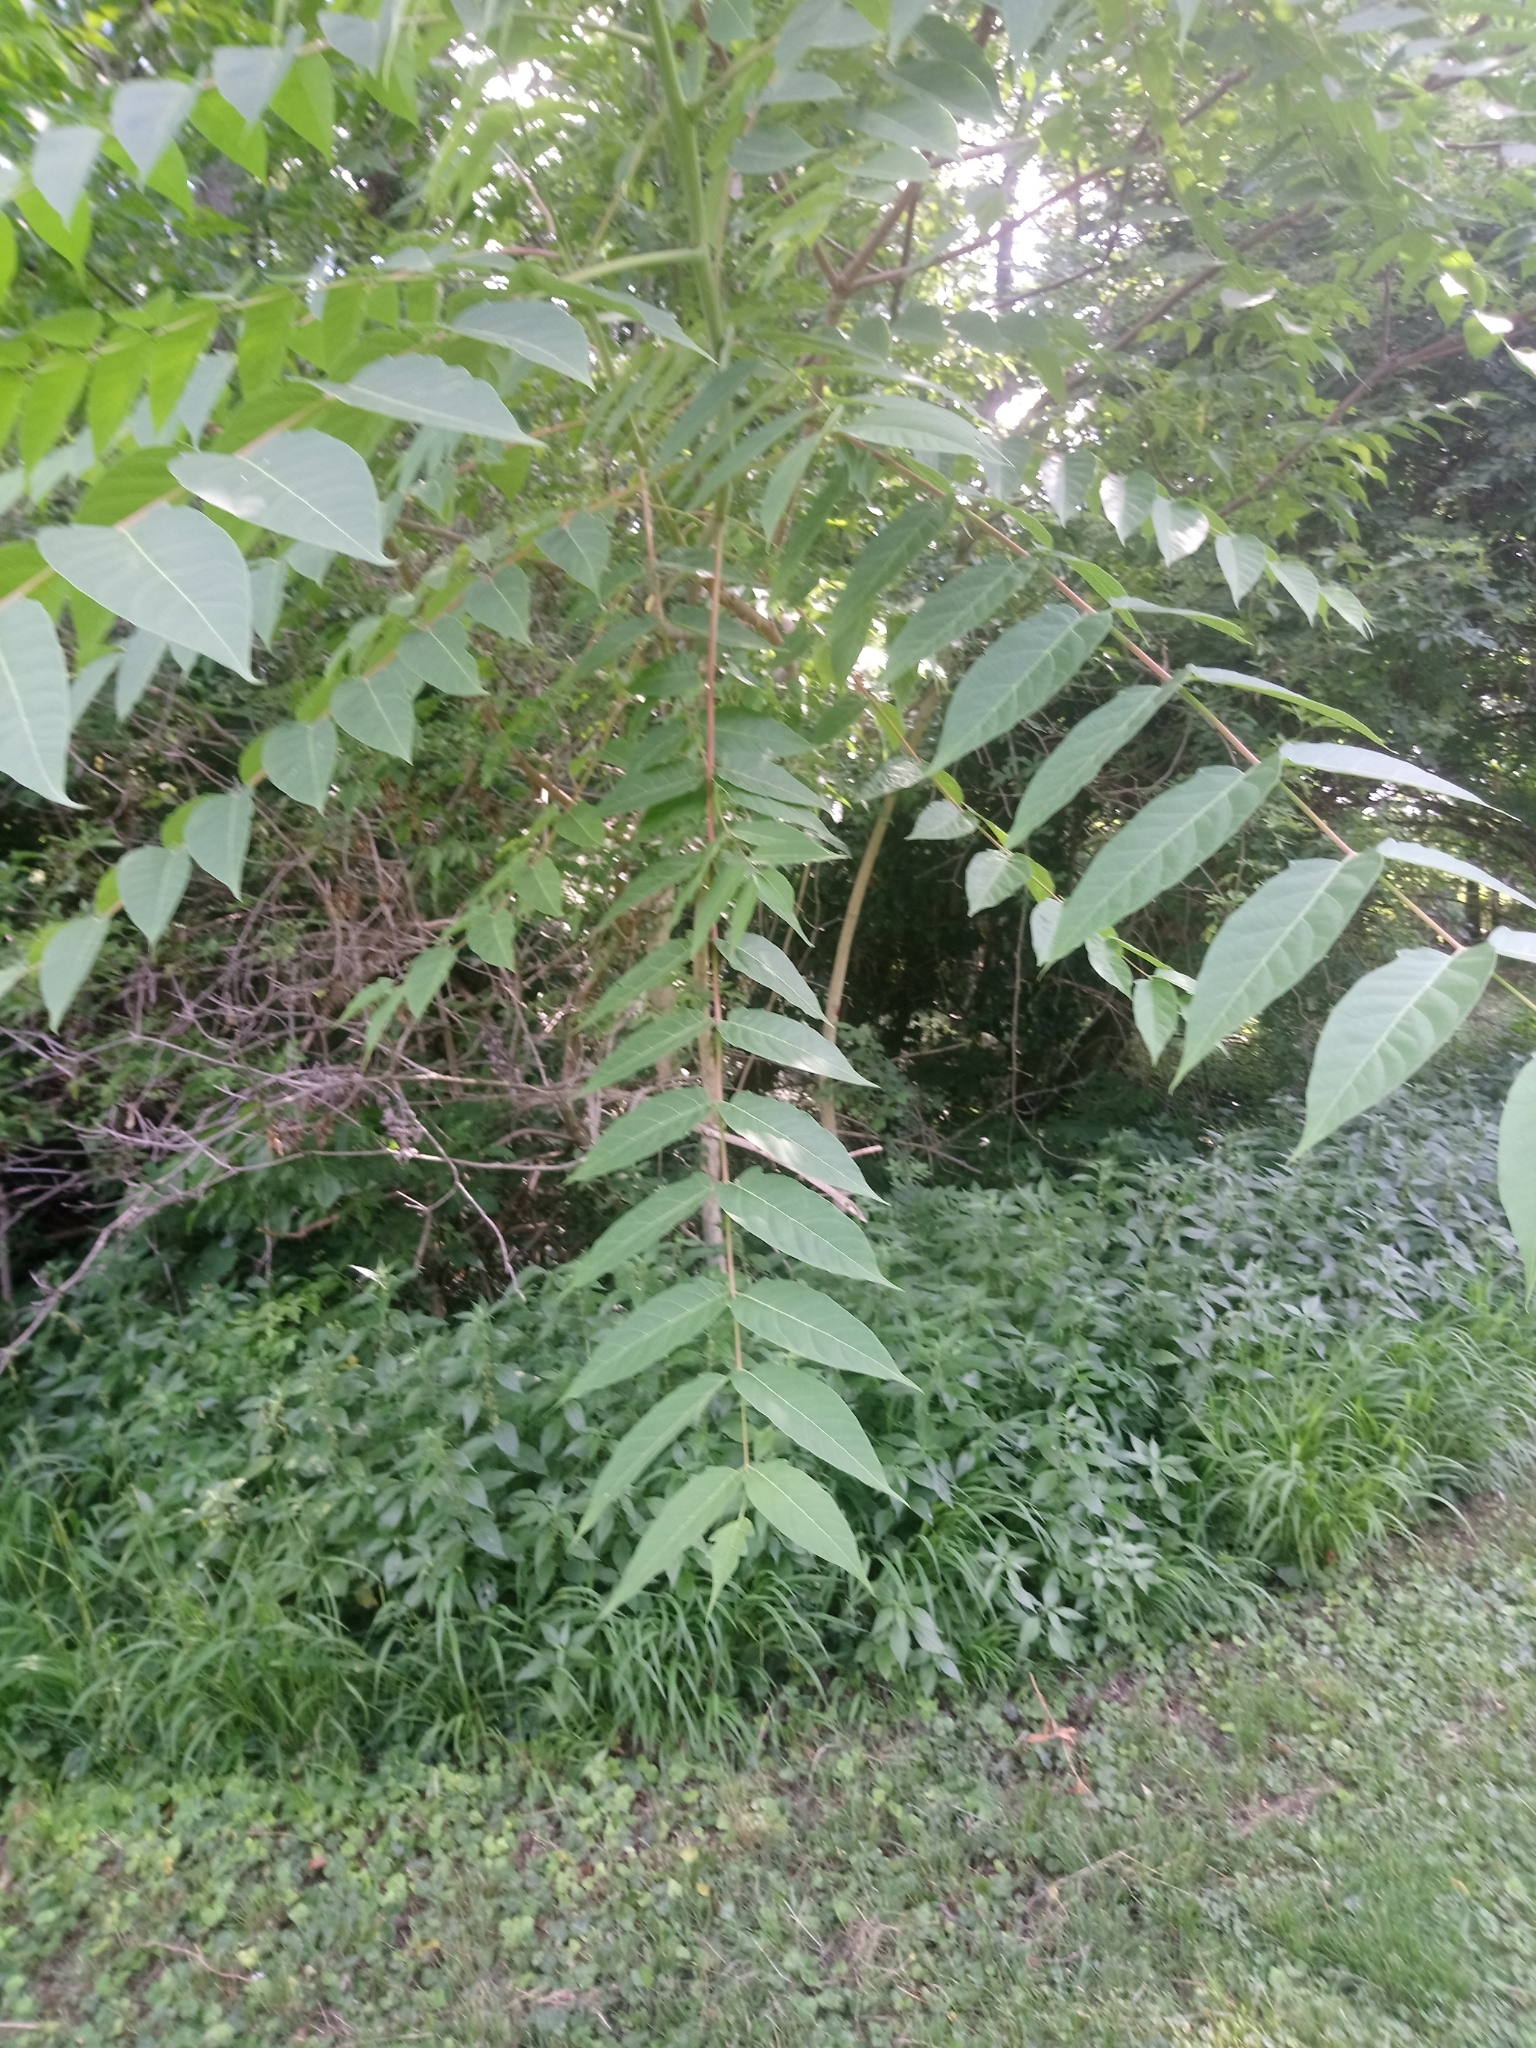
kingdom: Plantae
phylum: Tracheophyta
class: Magnoliopsida
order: Sapindales
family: Simaroubaceae
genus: Ailanthus
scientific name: Ailanthus altissima
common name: Tree-of-heaven
